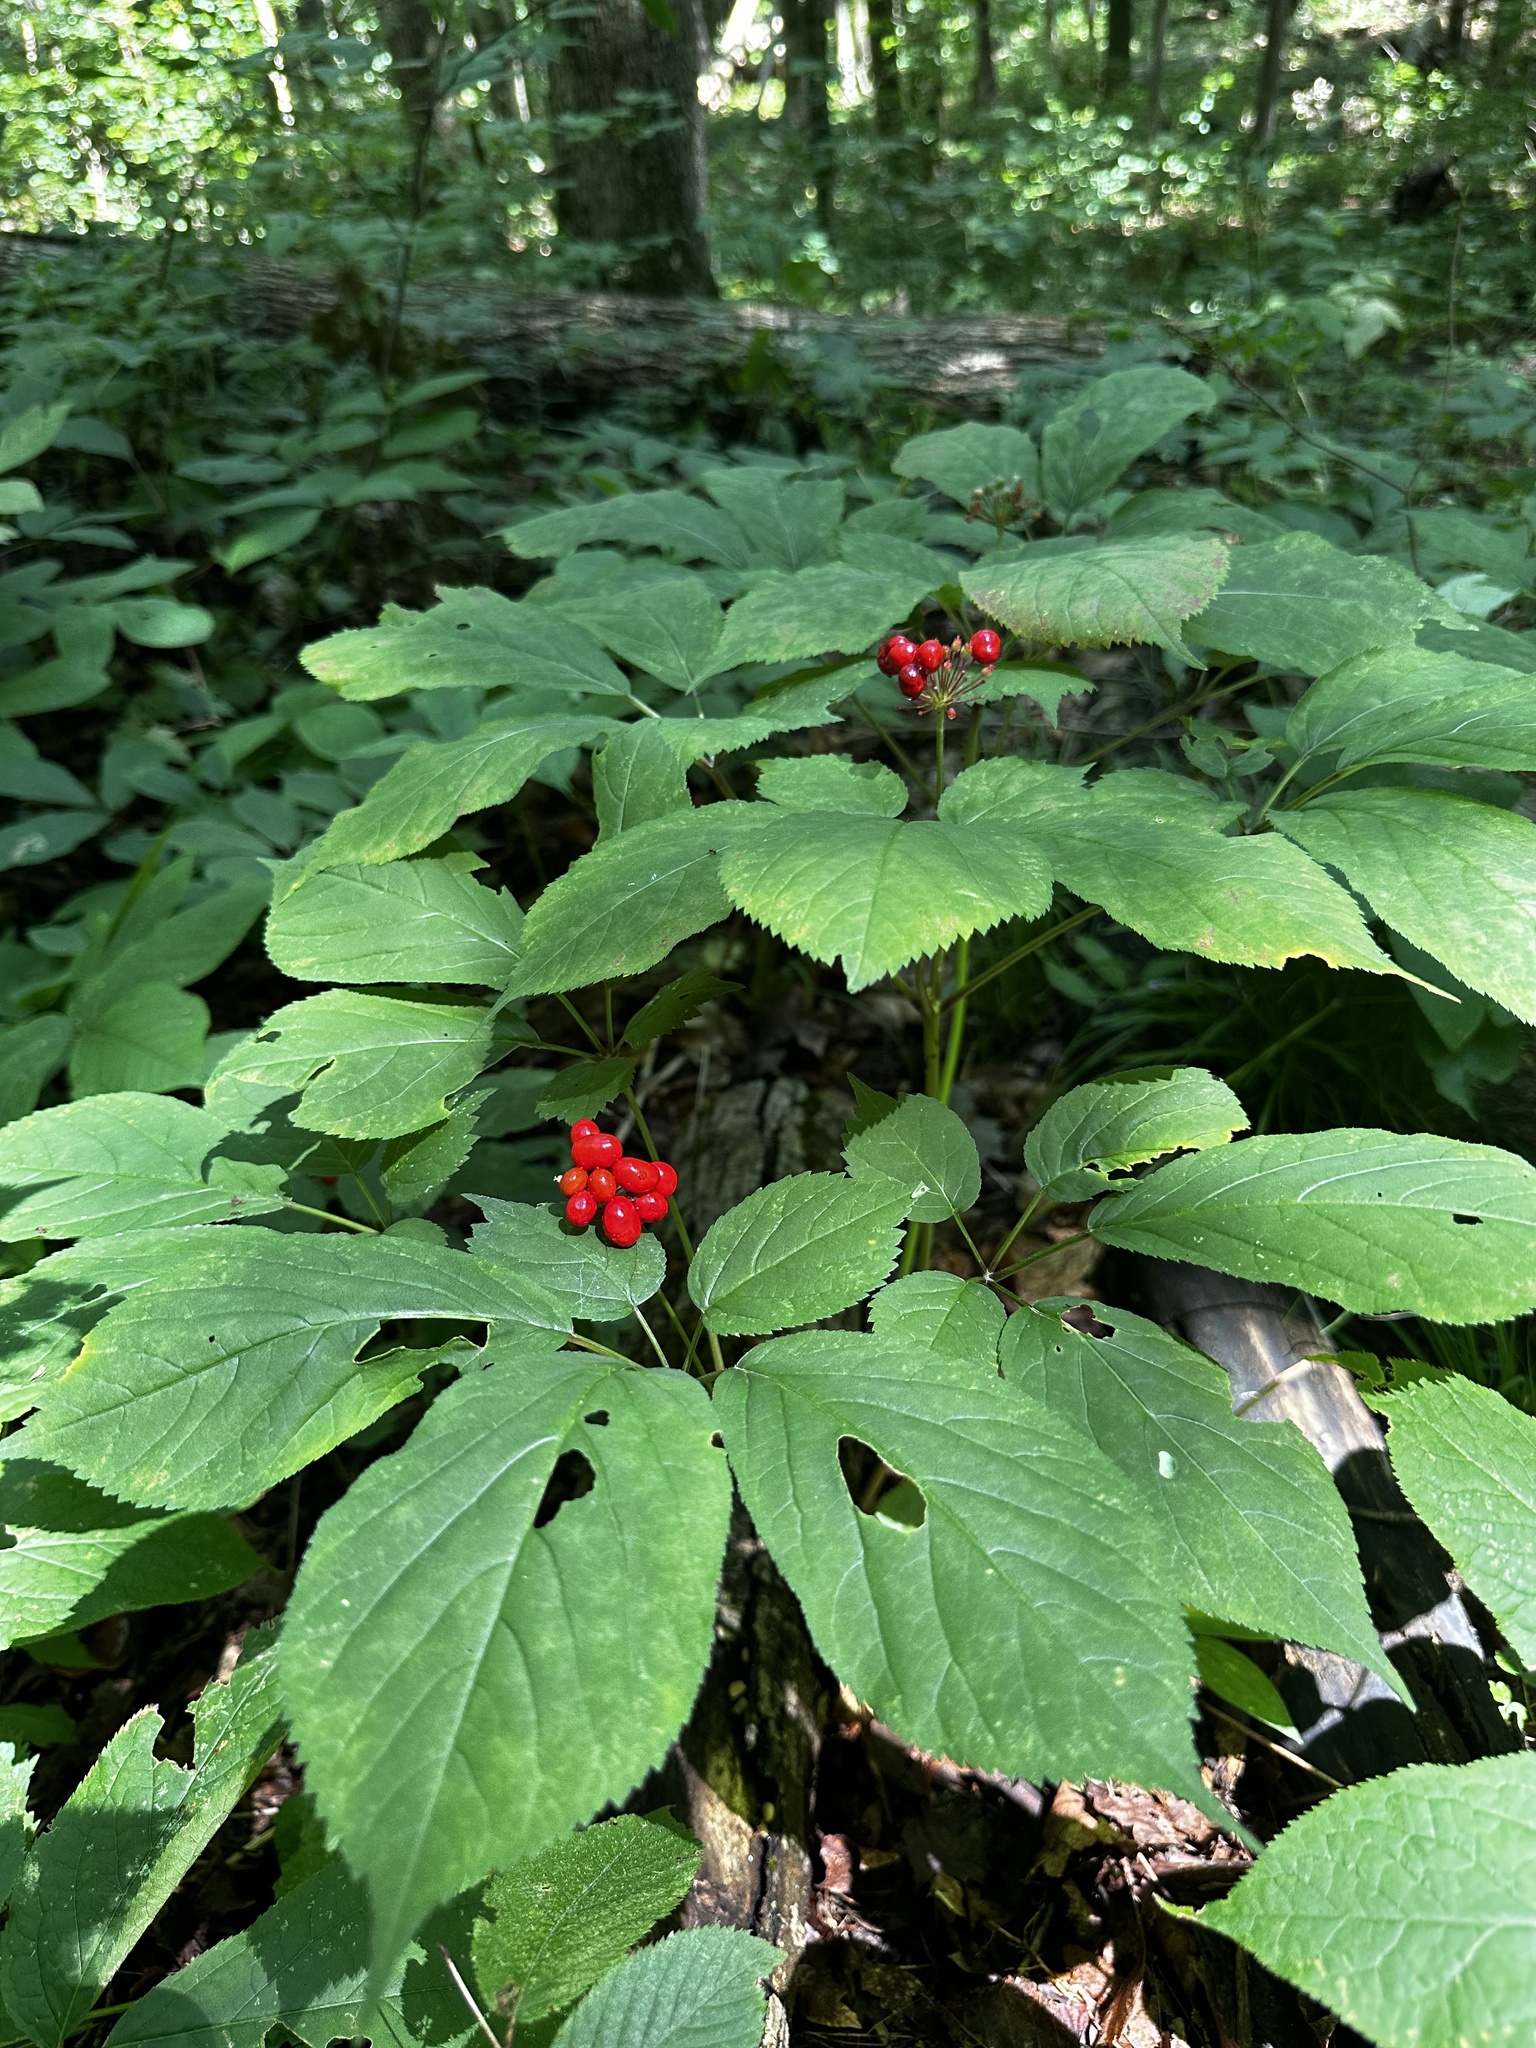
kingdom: Plantae
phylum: Tracheophyta
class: Magnoliopsida
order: Apiales
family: Araliaceae
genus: Panax
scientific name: Panax quinquefolius
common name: American ginseng
